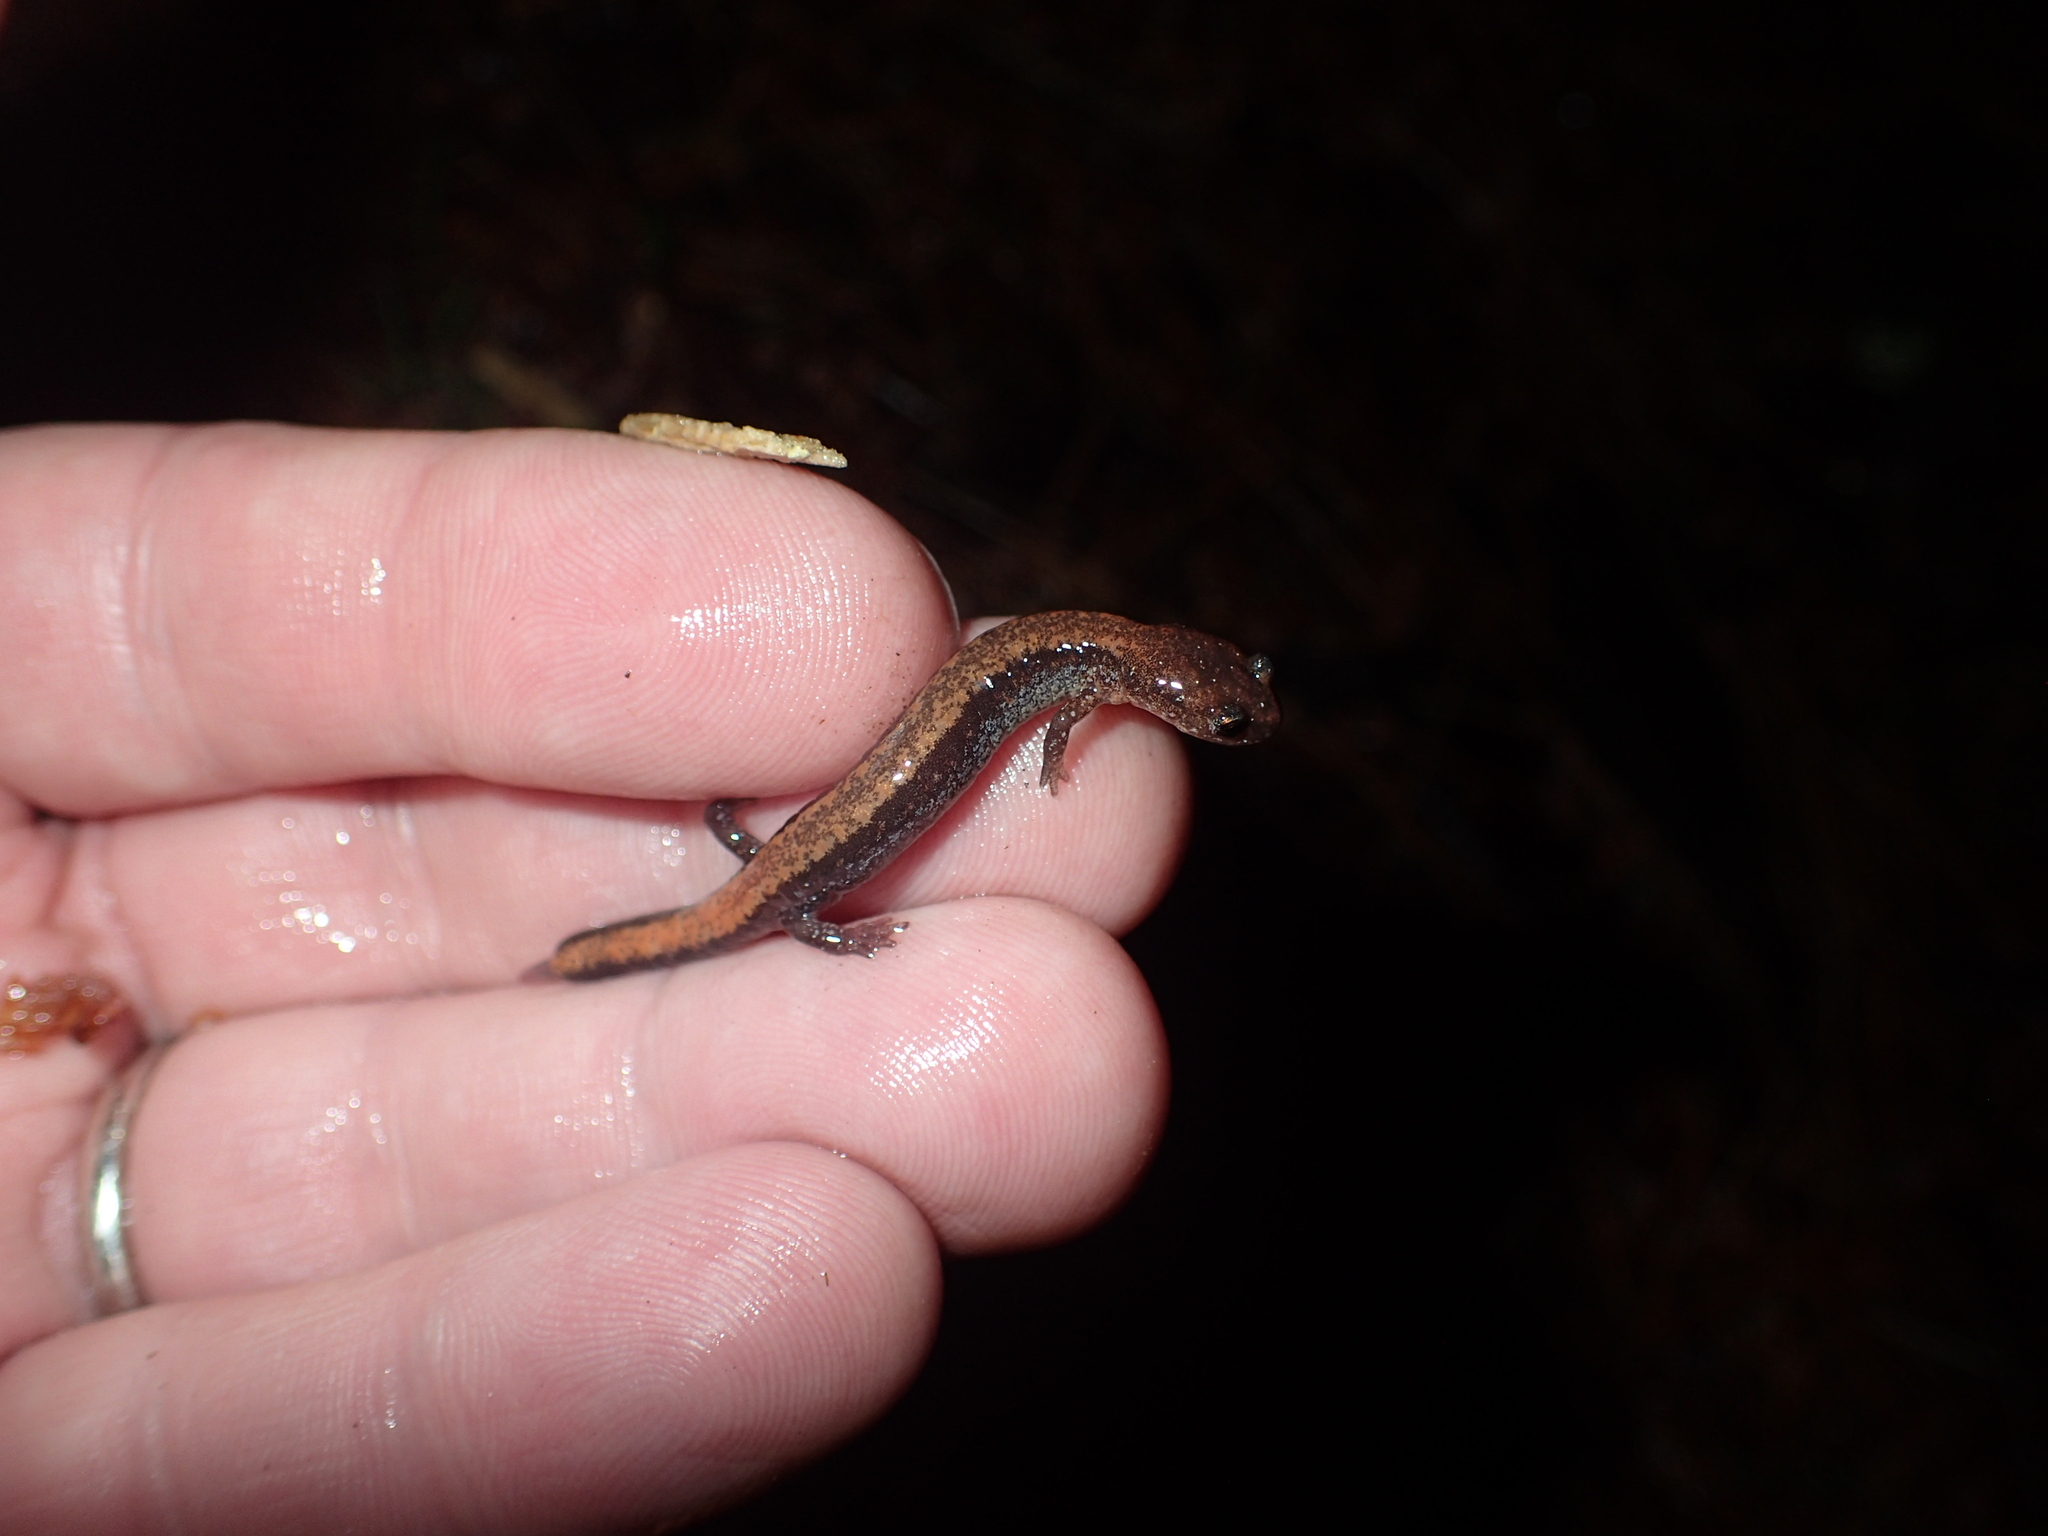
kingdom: Animalia
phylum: Chordata
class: Amphibia
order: Caudata
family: Plethodontidae
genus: Plethodon
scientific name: Plethodon cinereus
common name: Redback salamander
